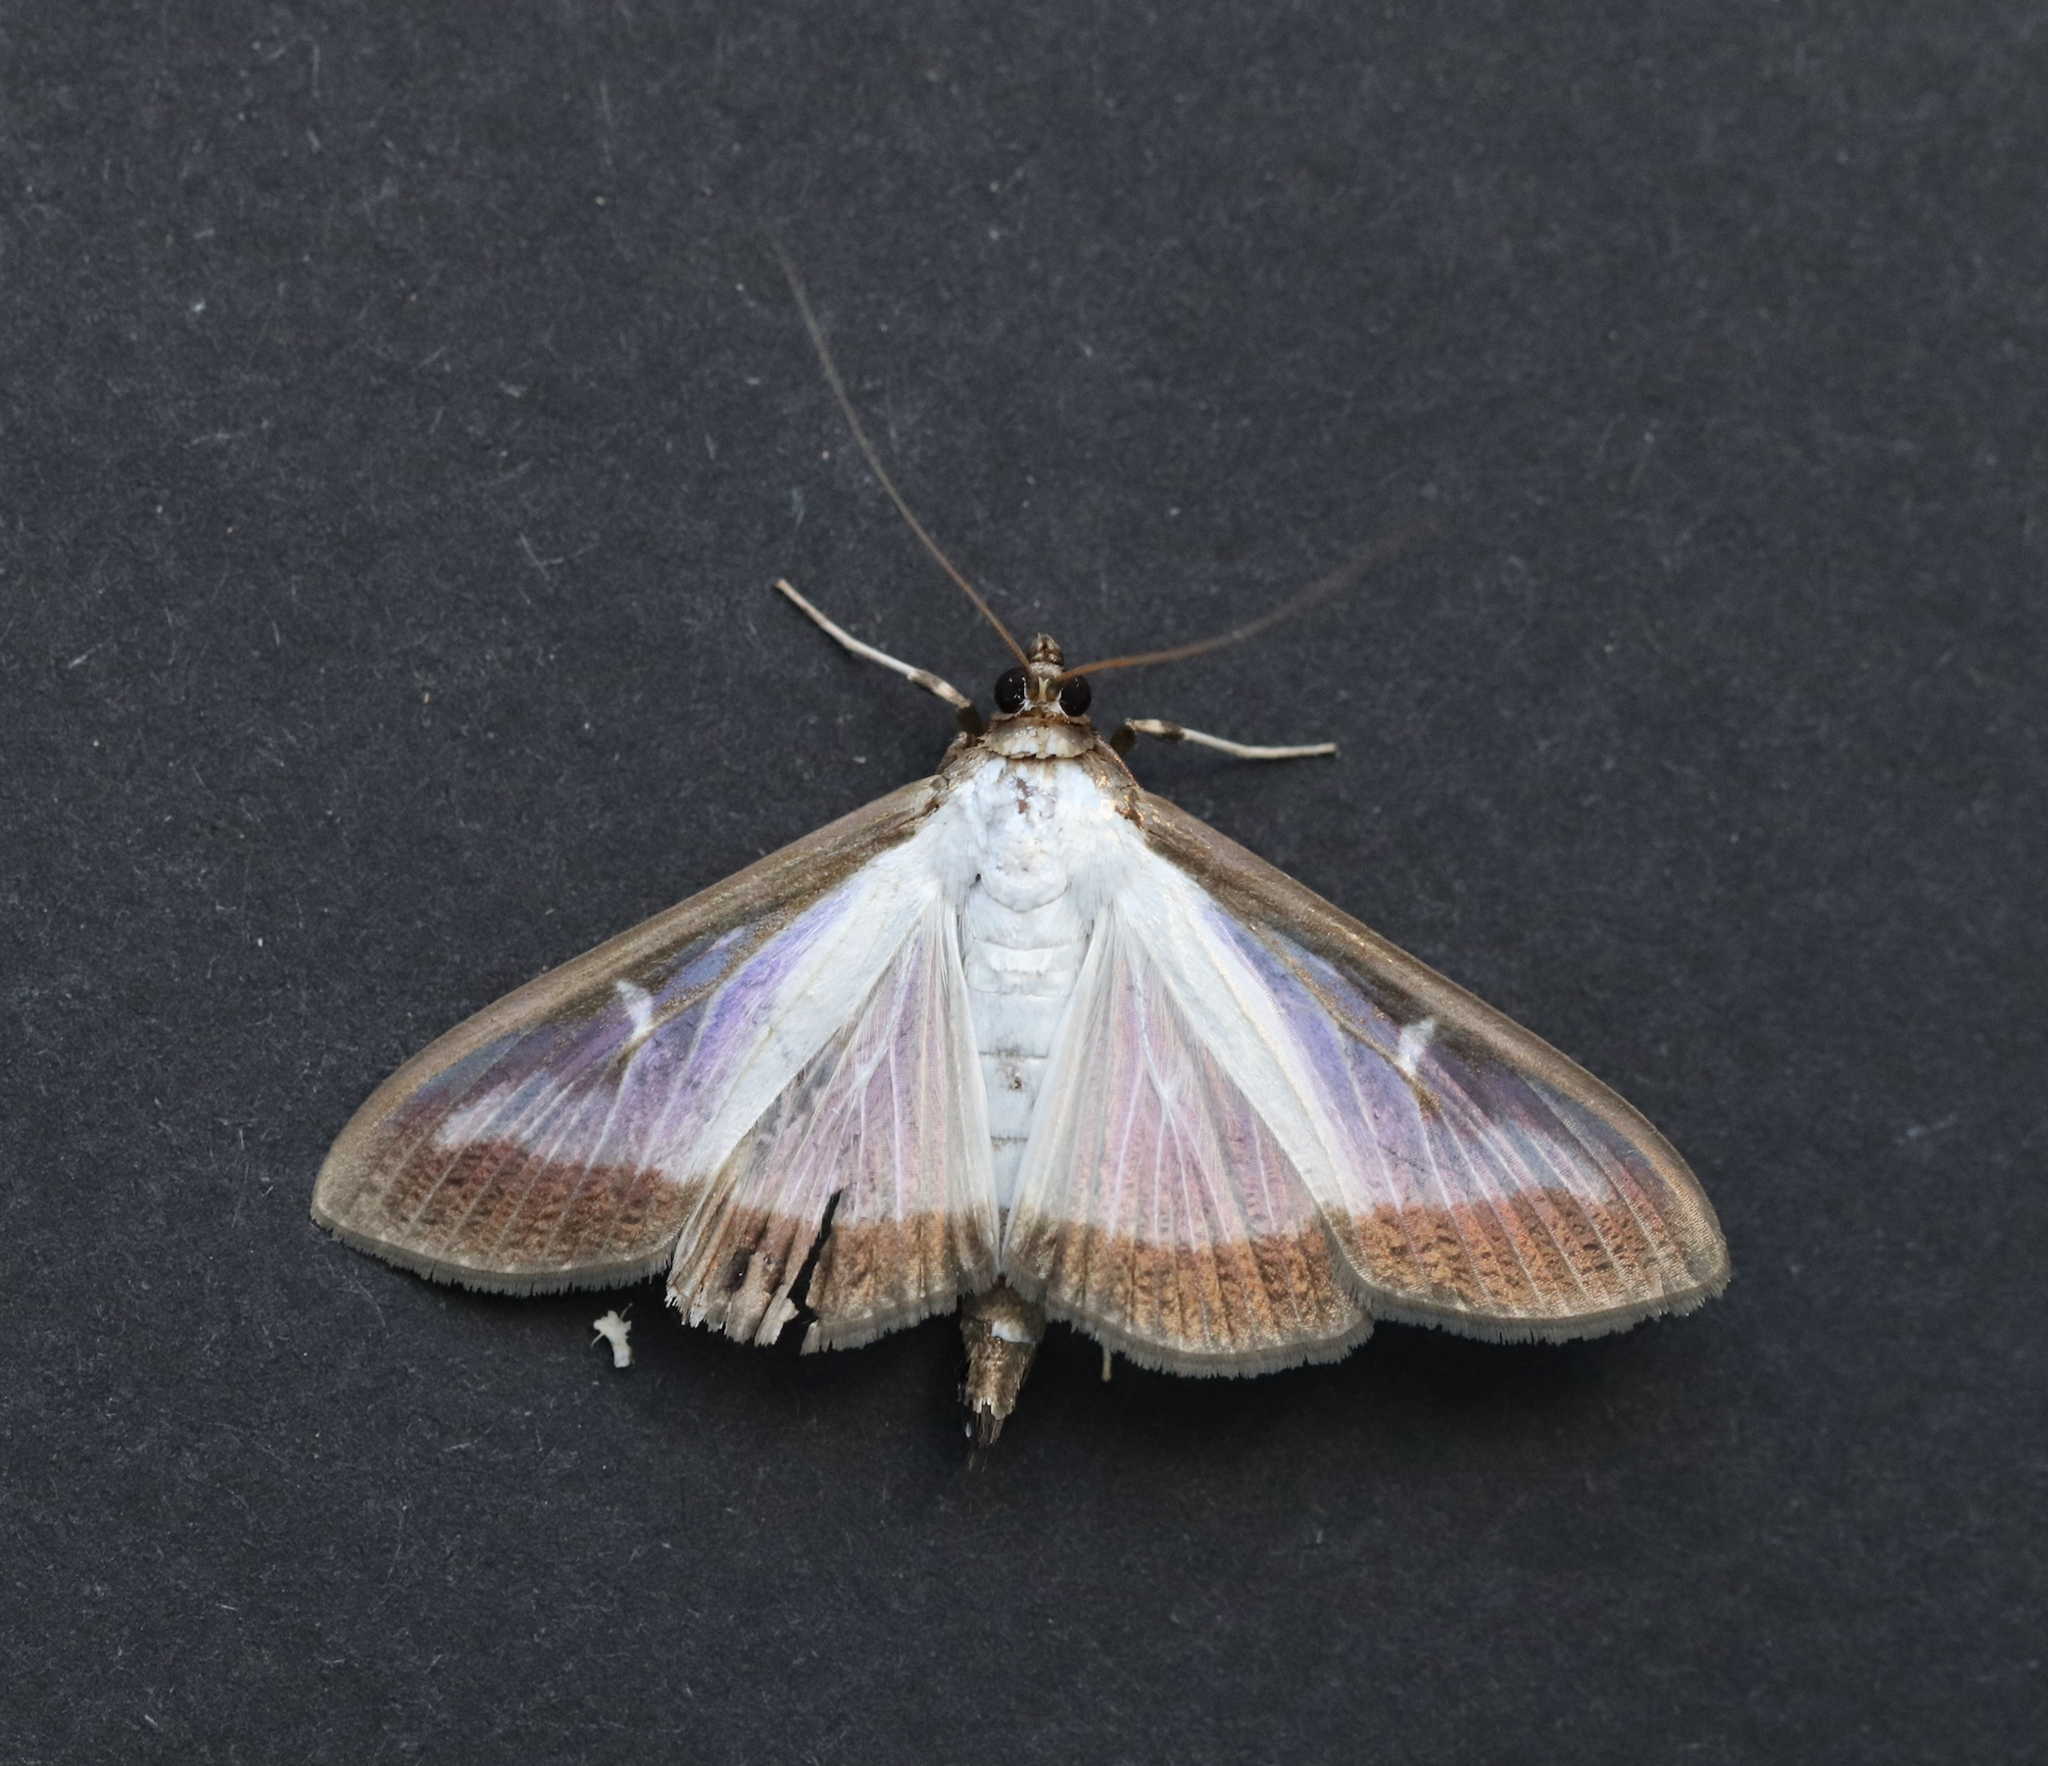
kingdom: Animalia
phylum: Arthropoda
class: Insecta
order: Lepidoptera
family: Crambidae
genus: Cydalima
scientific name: Cydalima perspectalis
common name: Box tree moth
